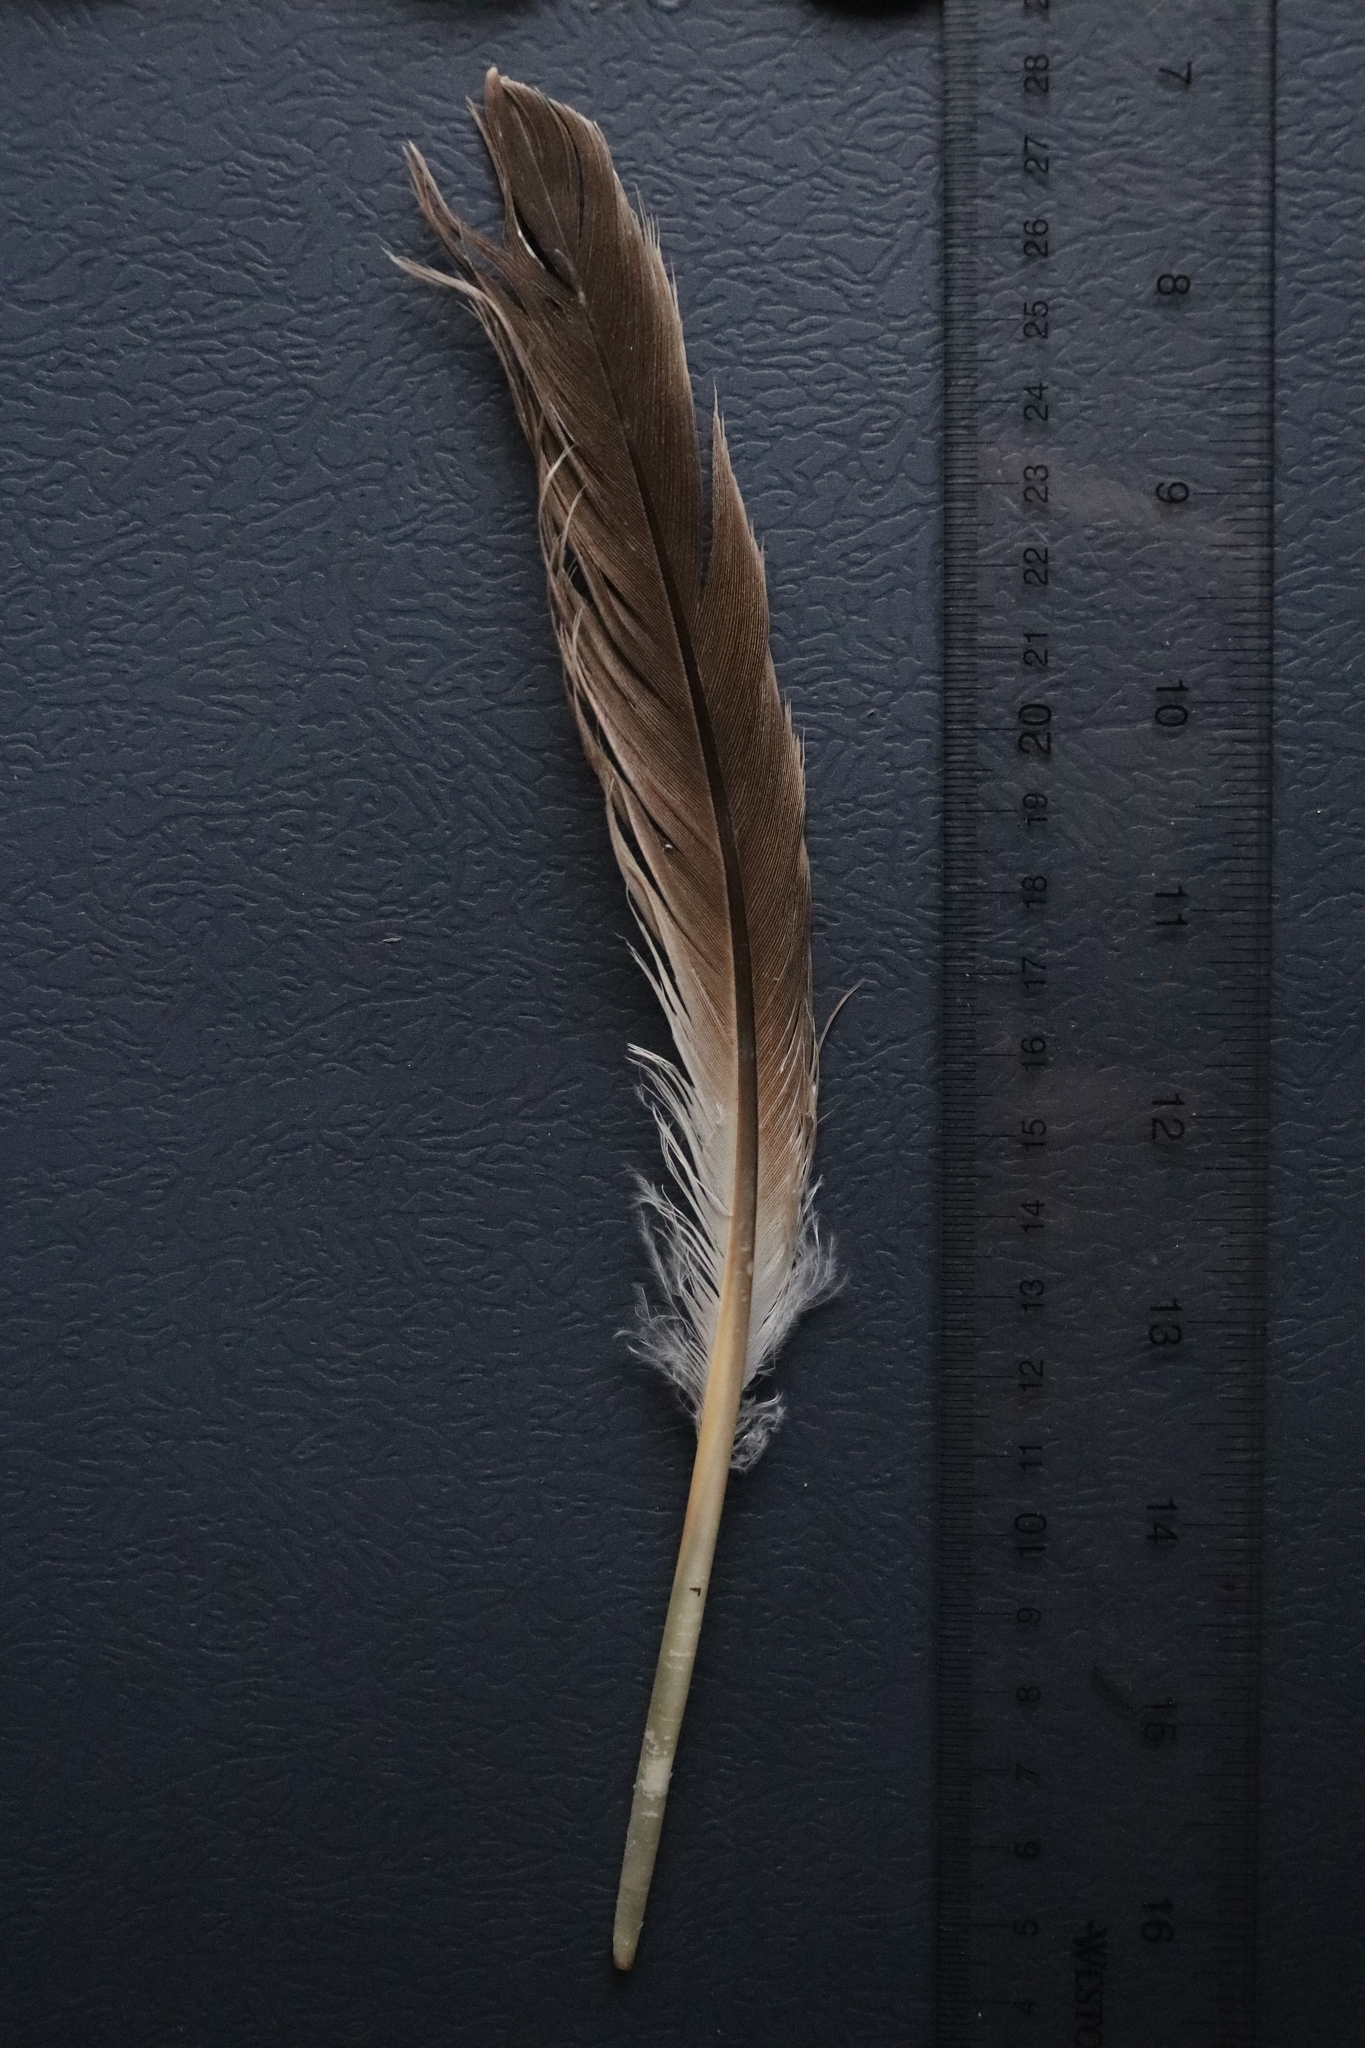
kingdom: Animalia
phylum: Chordata
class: Aves
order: Anseriformes
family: Anatidae
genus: Branta
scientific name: Branta canadensis
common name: Canada goose
